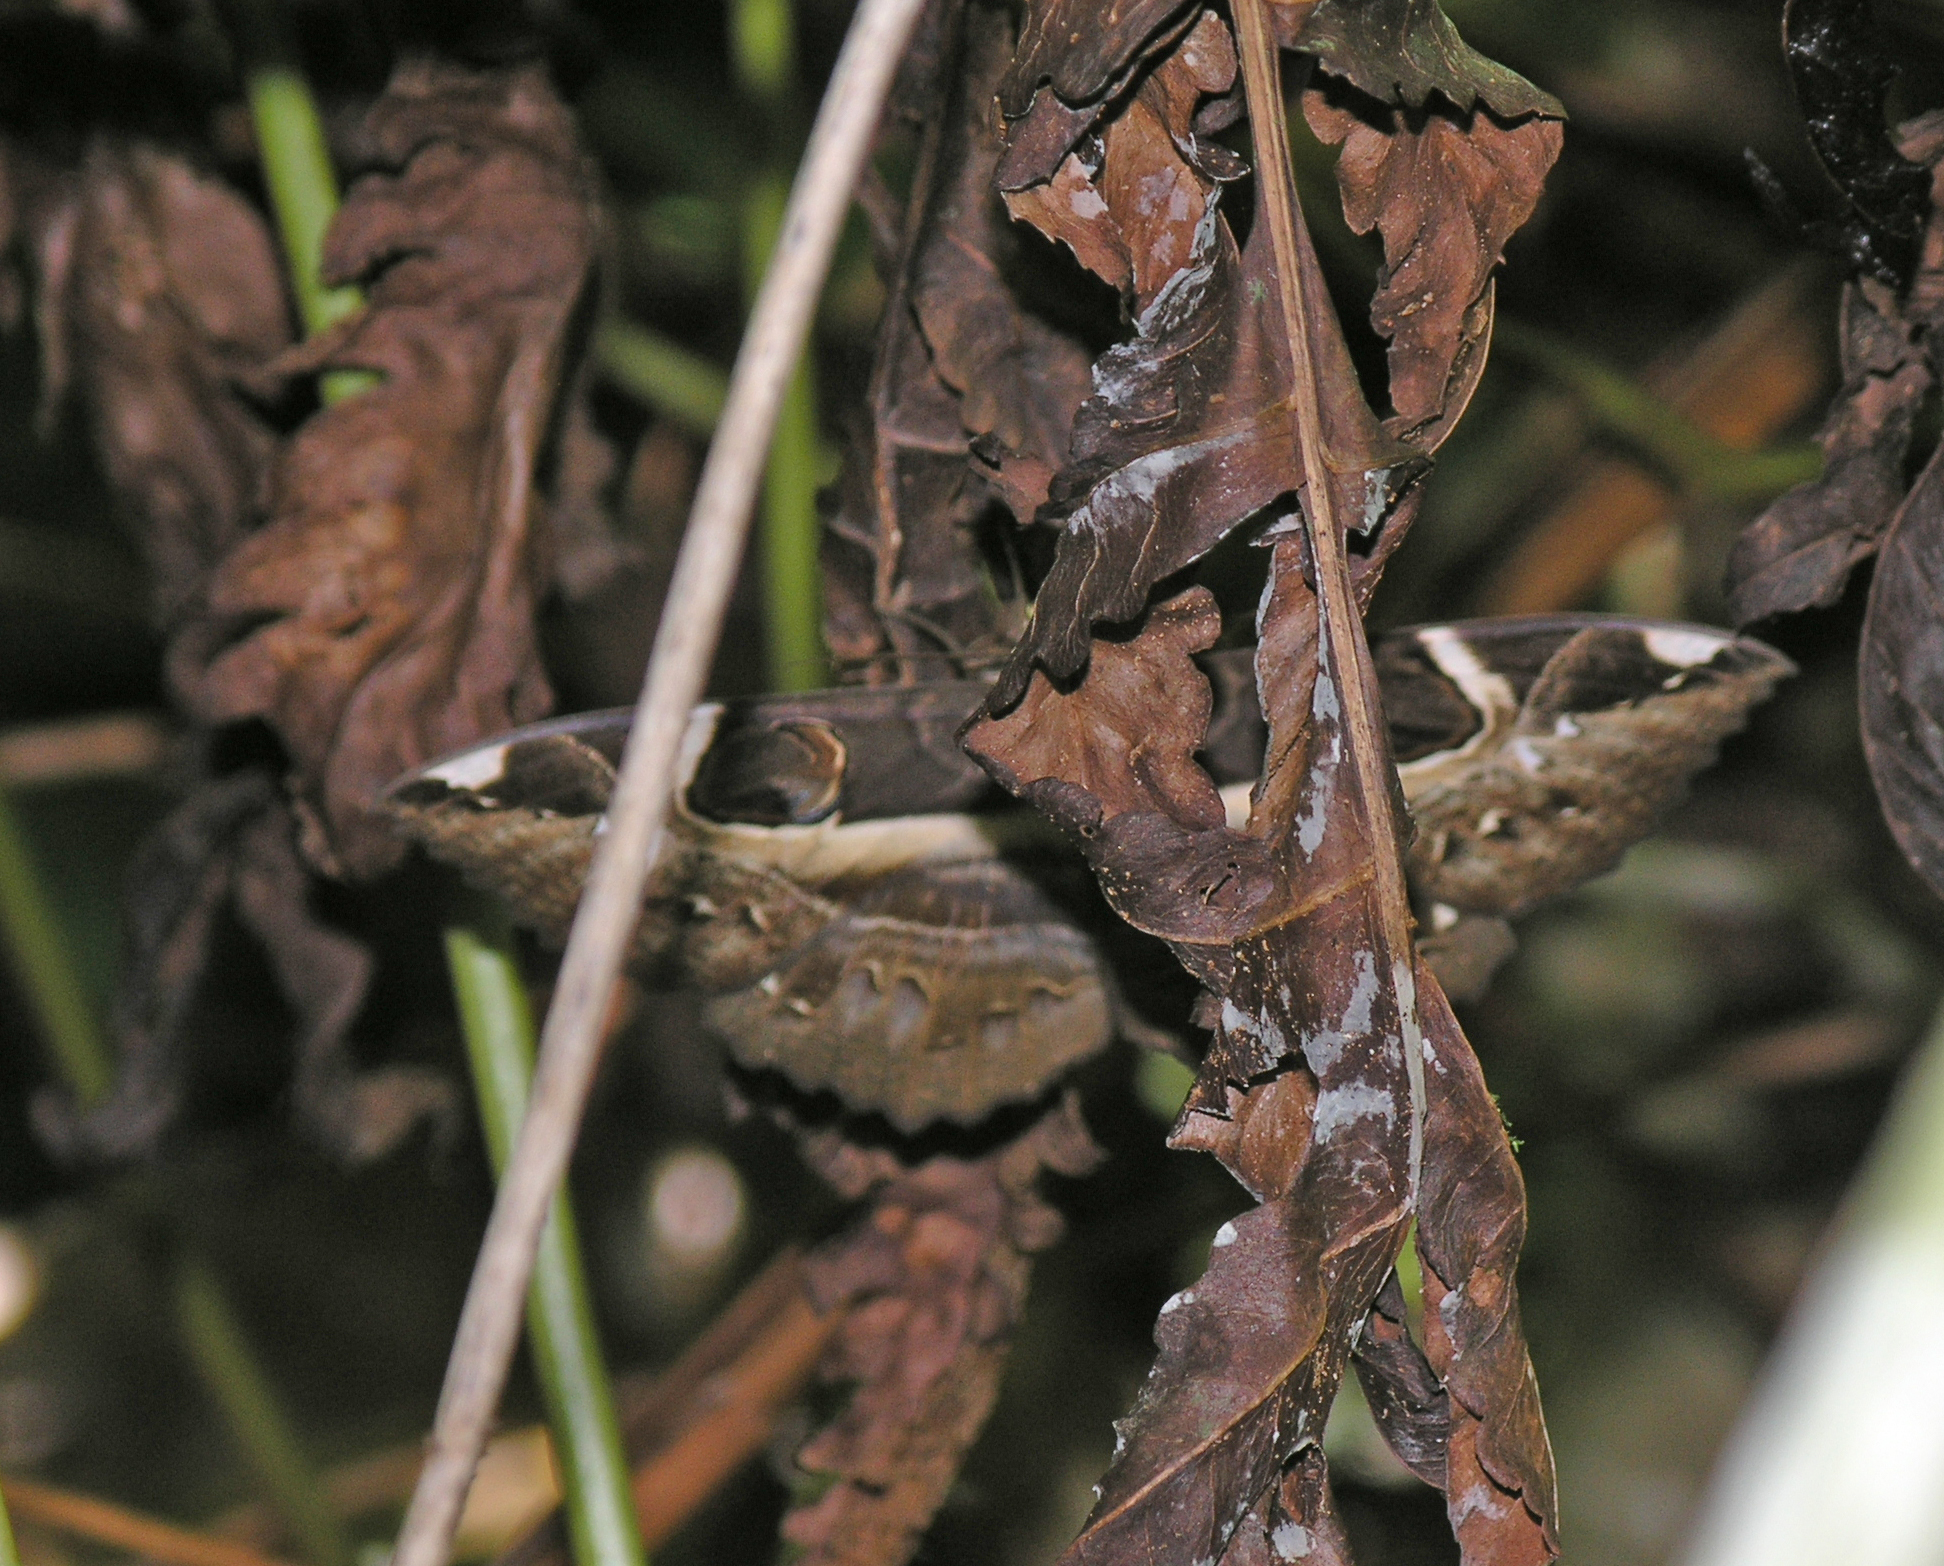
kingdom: Animalia
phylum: Arthropoda
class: Insecta
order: Lepidoptera
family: Erebidae
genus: Erebus
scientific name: Erebus ephesperis
